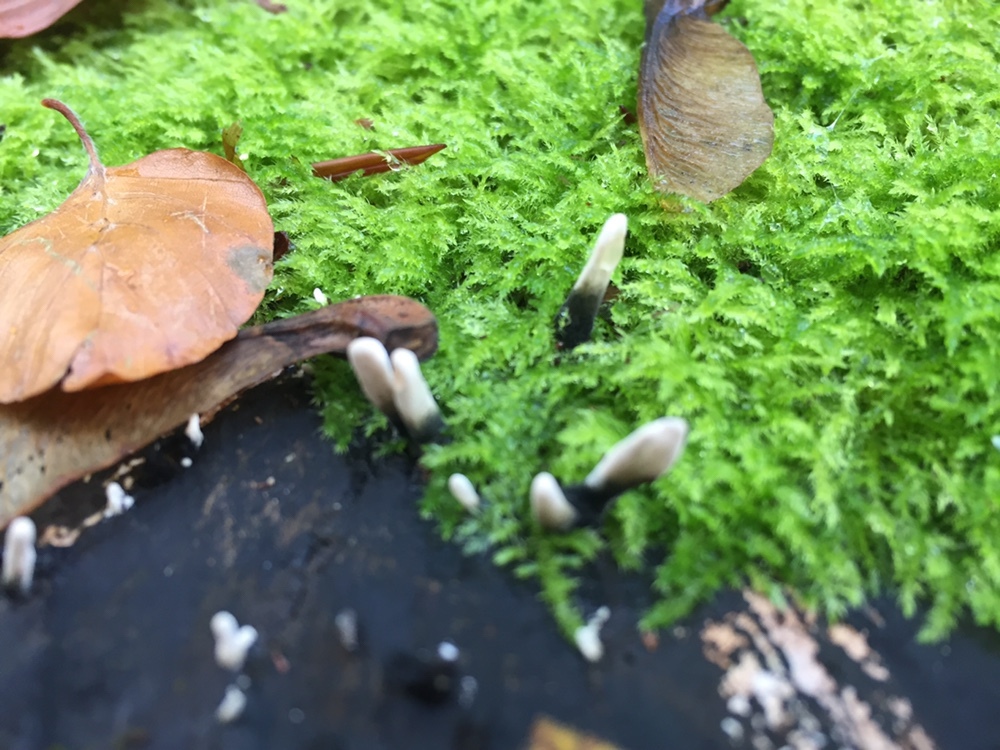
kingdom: Fungi
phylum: Ascomycota
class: Sordariomycetes
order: Xylariales
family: Xylariaceae
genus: Xylaria
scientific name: Xylaria hypoxylon
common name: Candle-snuff fungus
